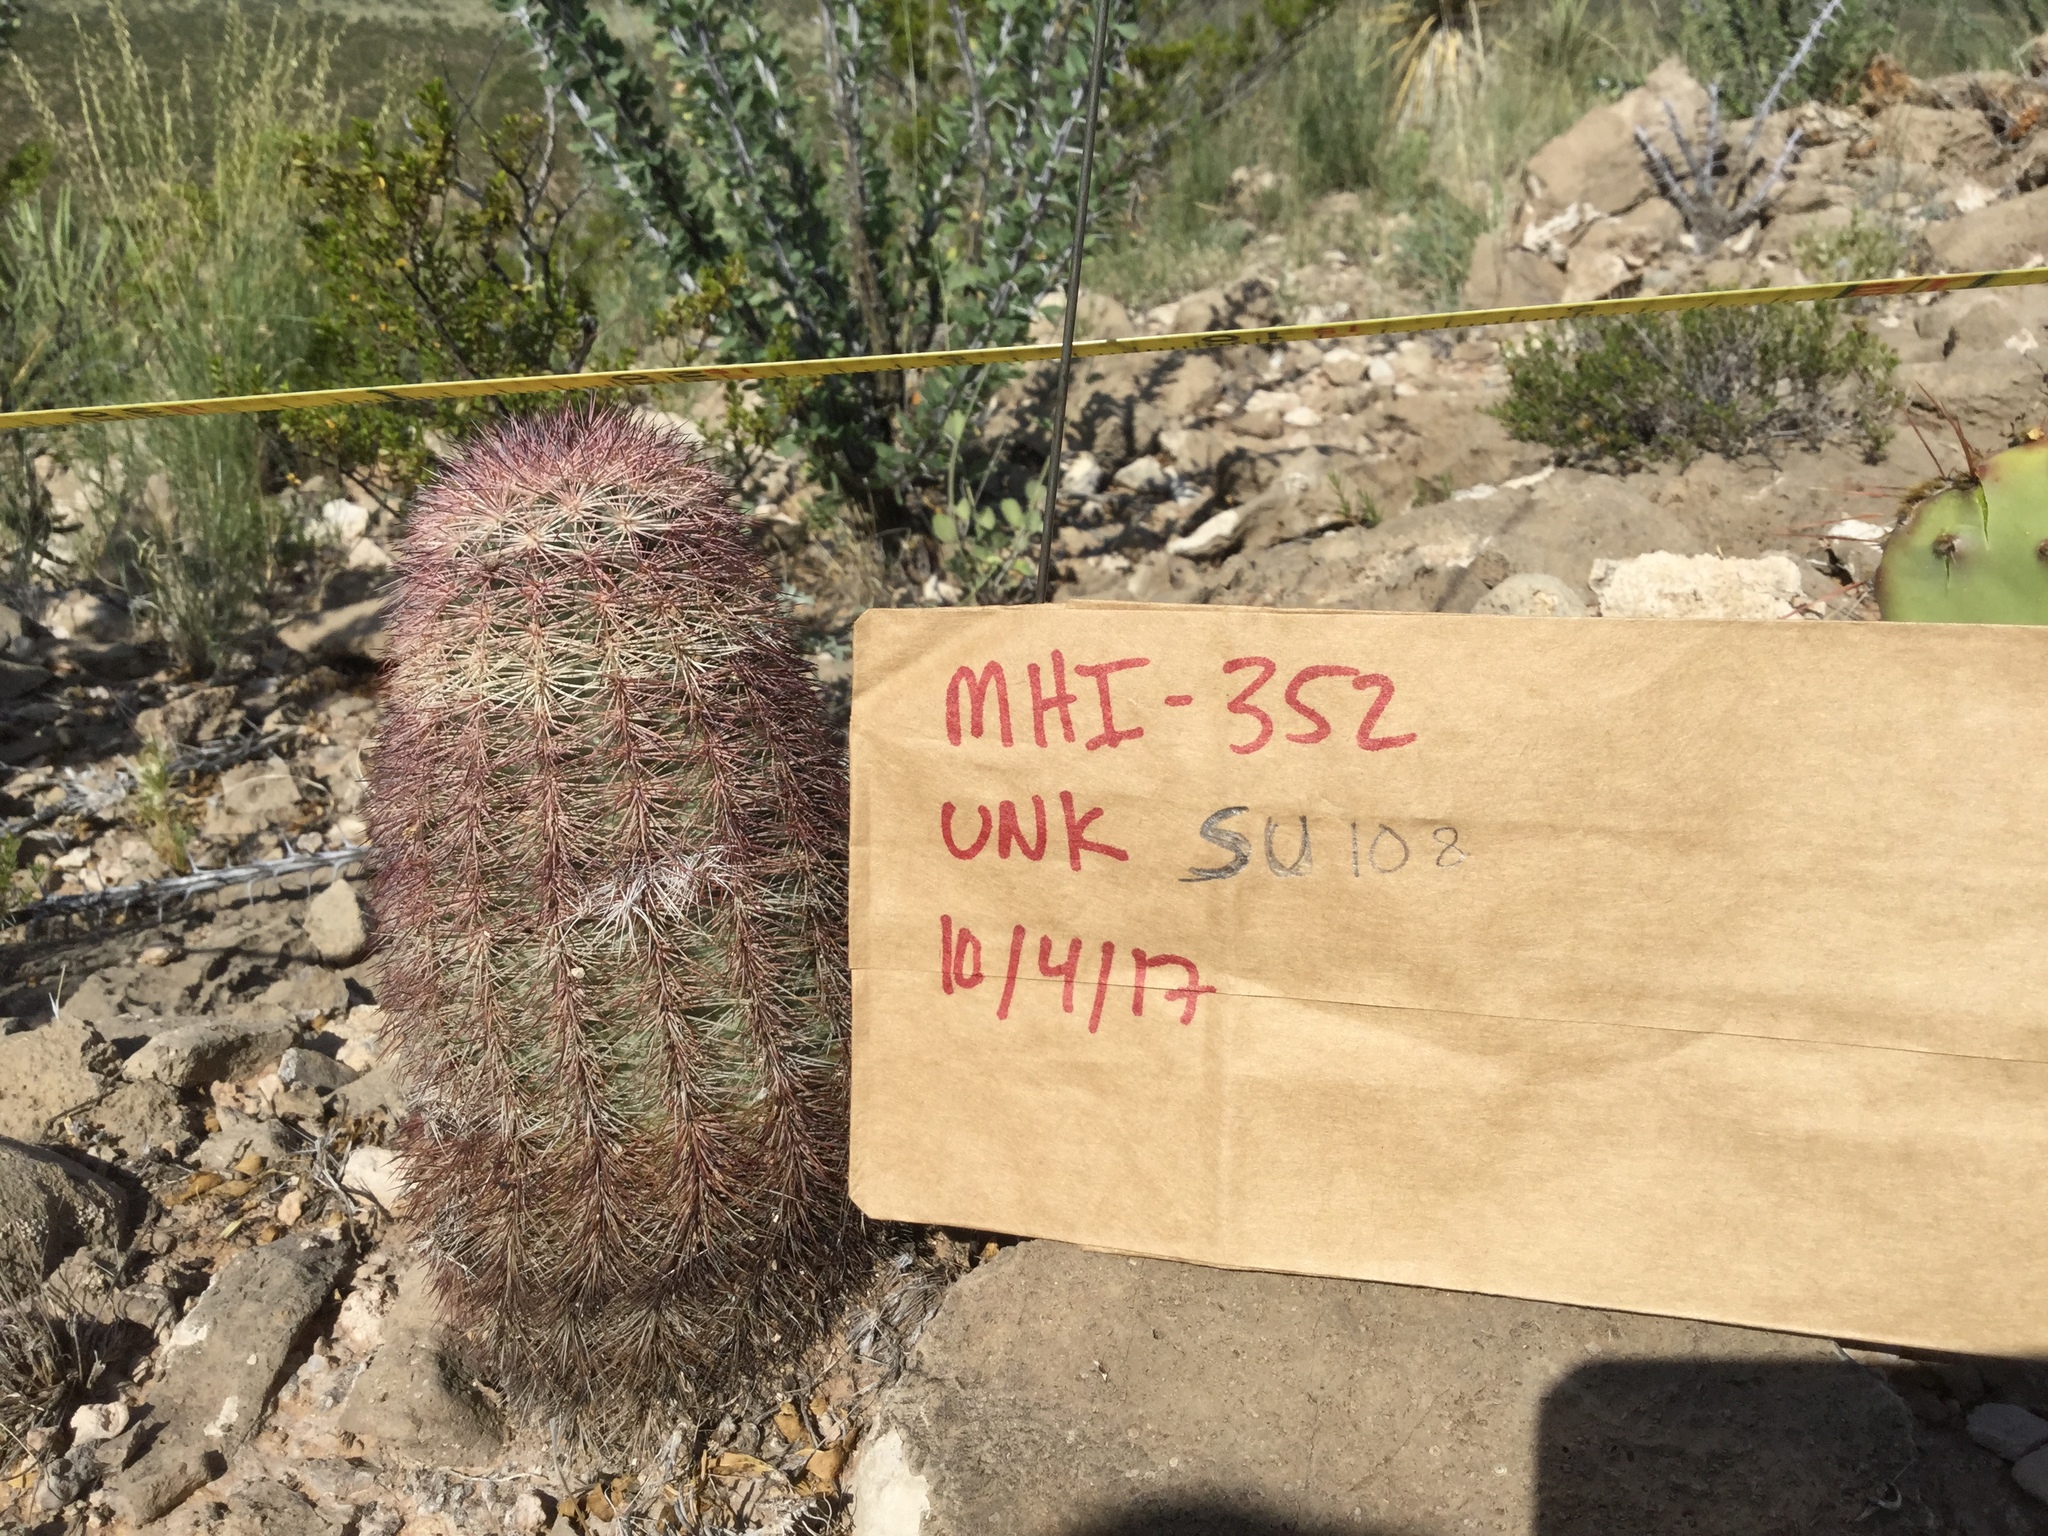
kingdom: Plantae
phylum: Tracheophyta
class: Magnoliopsida
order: Caryophyllales
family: Cactaceae
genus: Echinocereus
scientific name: Echinocereus dasyacanthus
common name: Spiny hedgehog cactus
